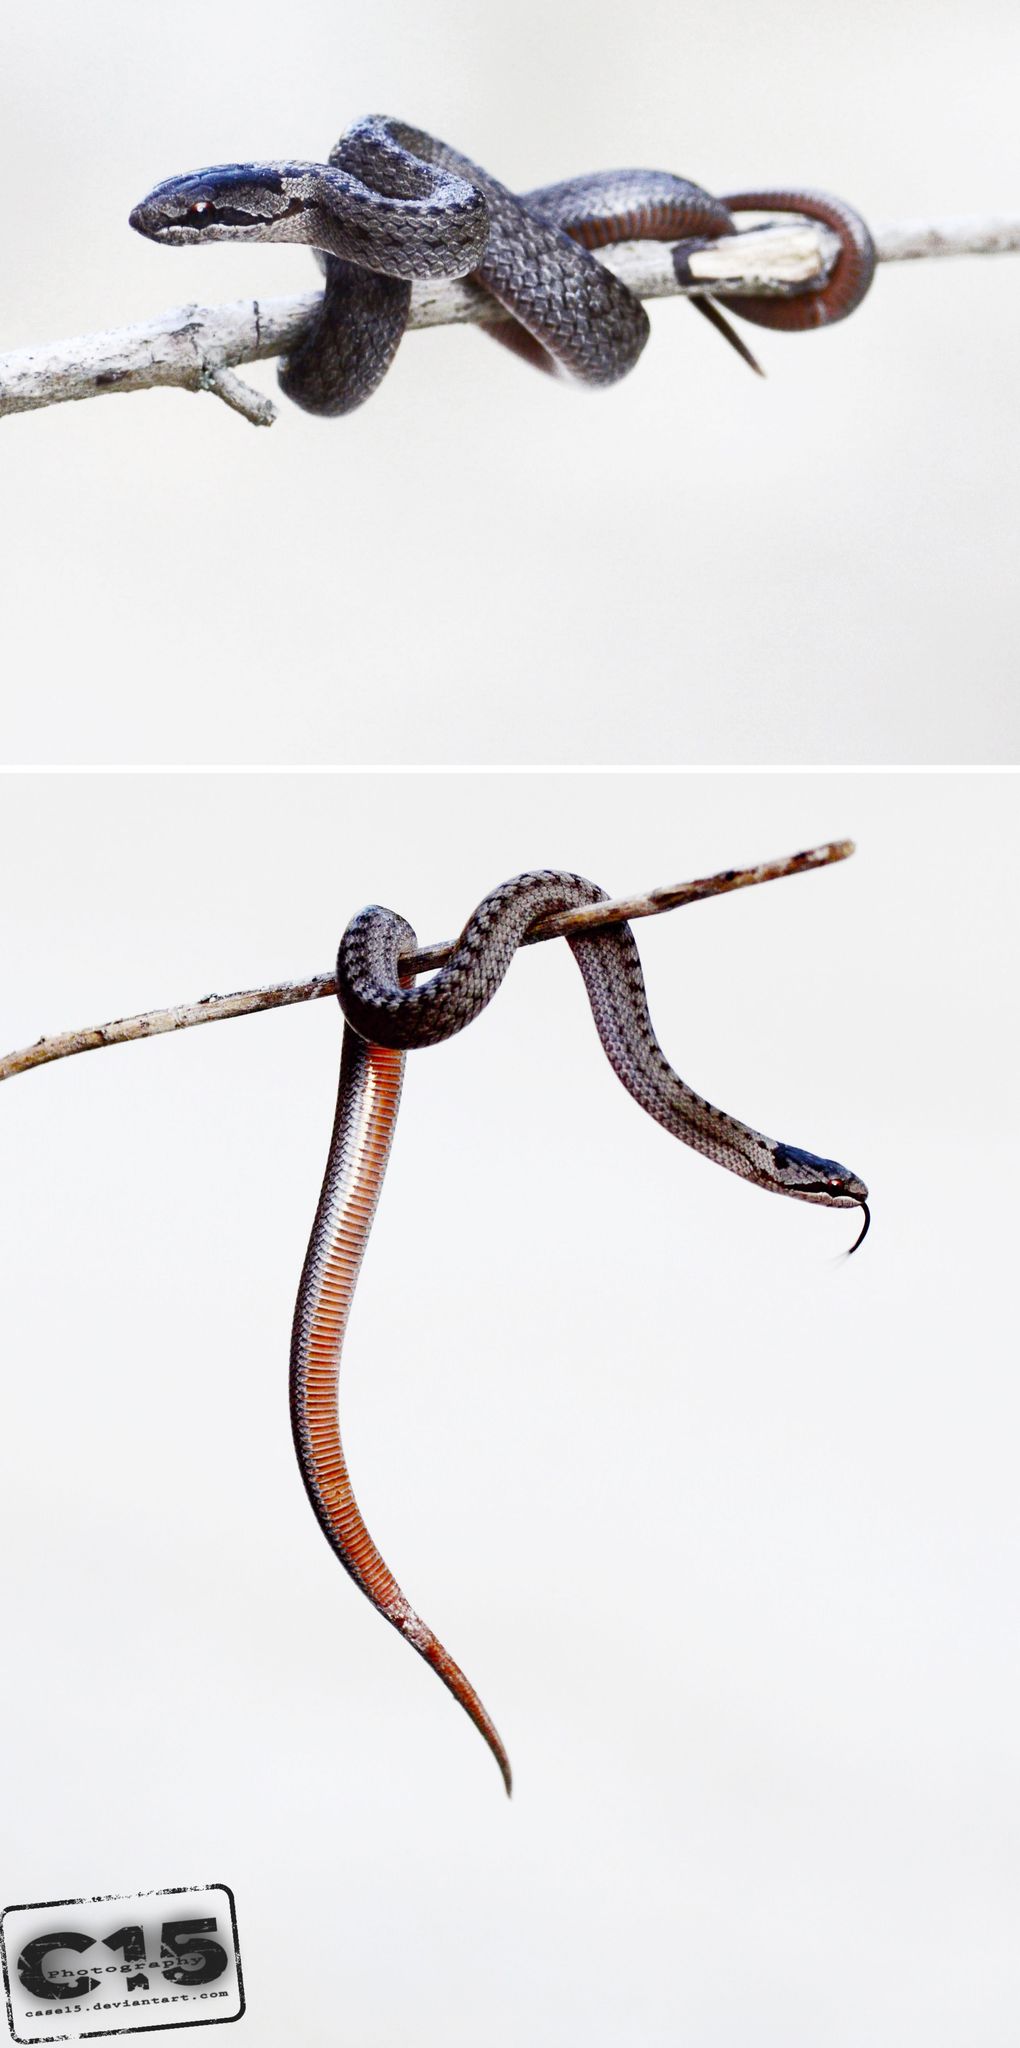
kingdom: Animalia
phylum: Chordata
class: Squamata
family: Colubridae
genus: Coronella
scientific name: Coronella austriaca
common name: Smooth snake
